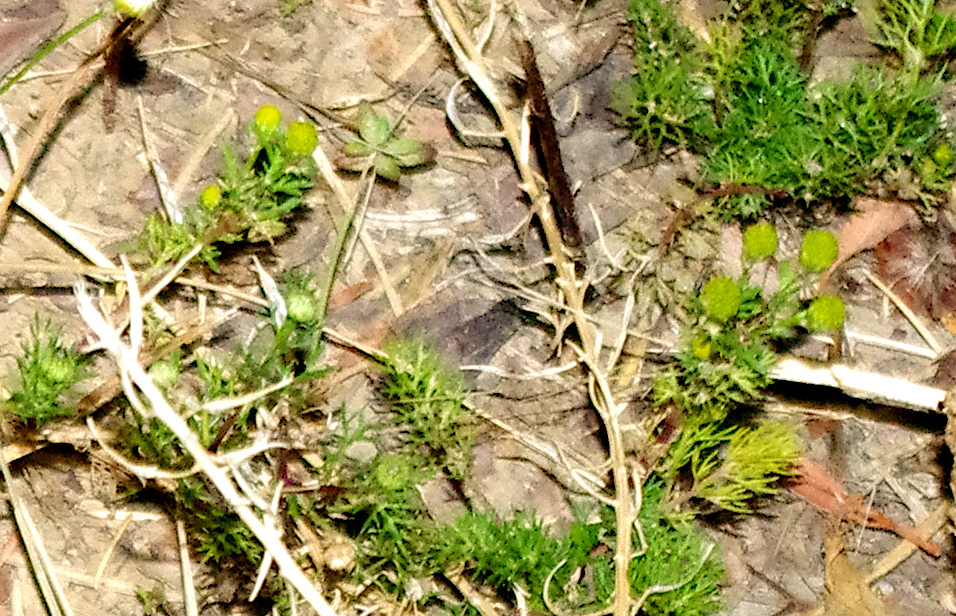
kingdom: Plantae
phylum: Tracheophyta
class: Magnoliopsida
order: Asterales
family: Asteraceae
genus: Matricaria
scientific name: Matricaria discoidea
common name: Disc mayweed
